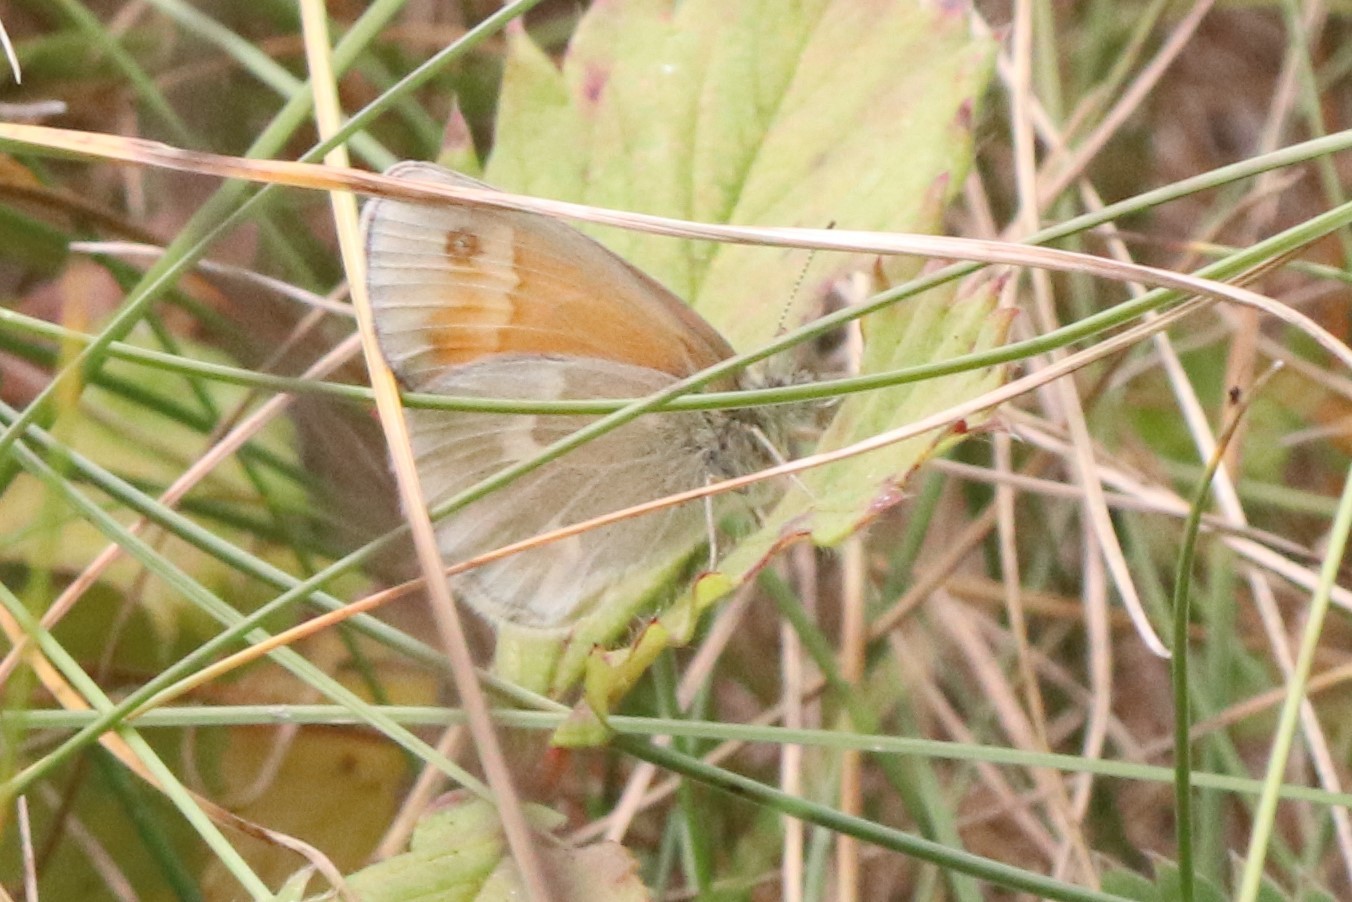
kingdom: Animalia
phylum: Arthropoda
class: Insecta
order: Lepidoptera
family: Nymphalidae
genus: Coenonympha
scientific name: Coenonympha california
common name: Common ringlet
